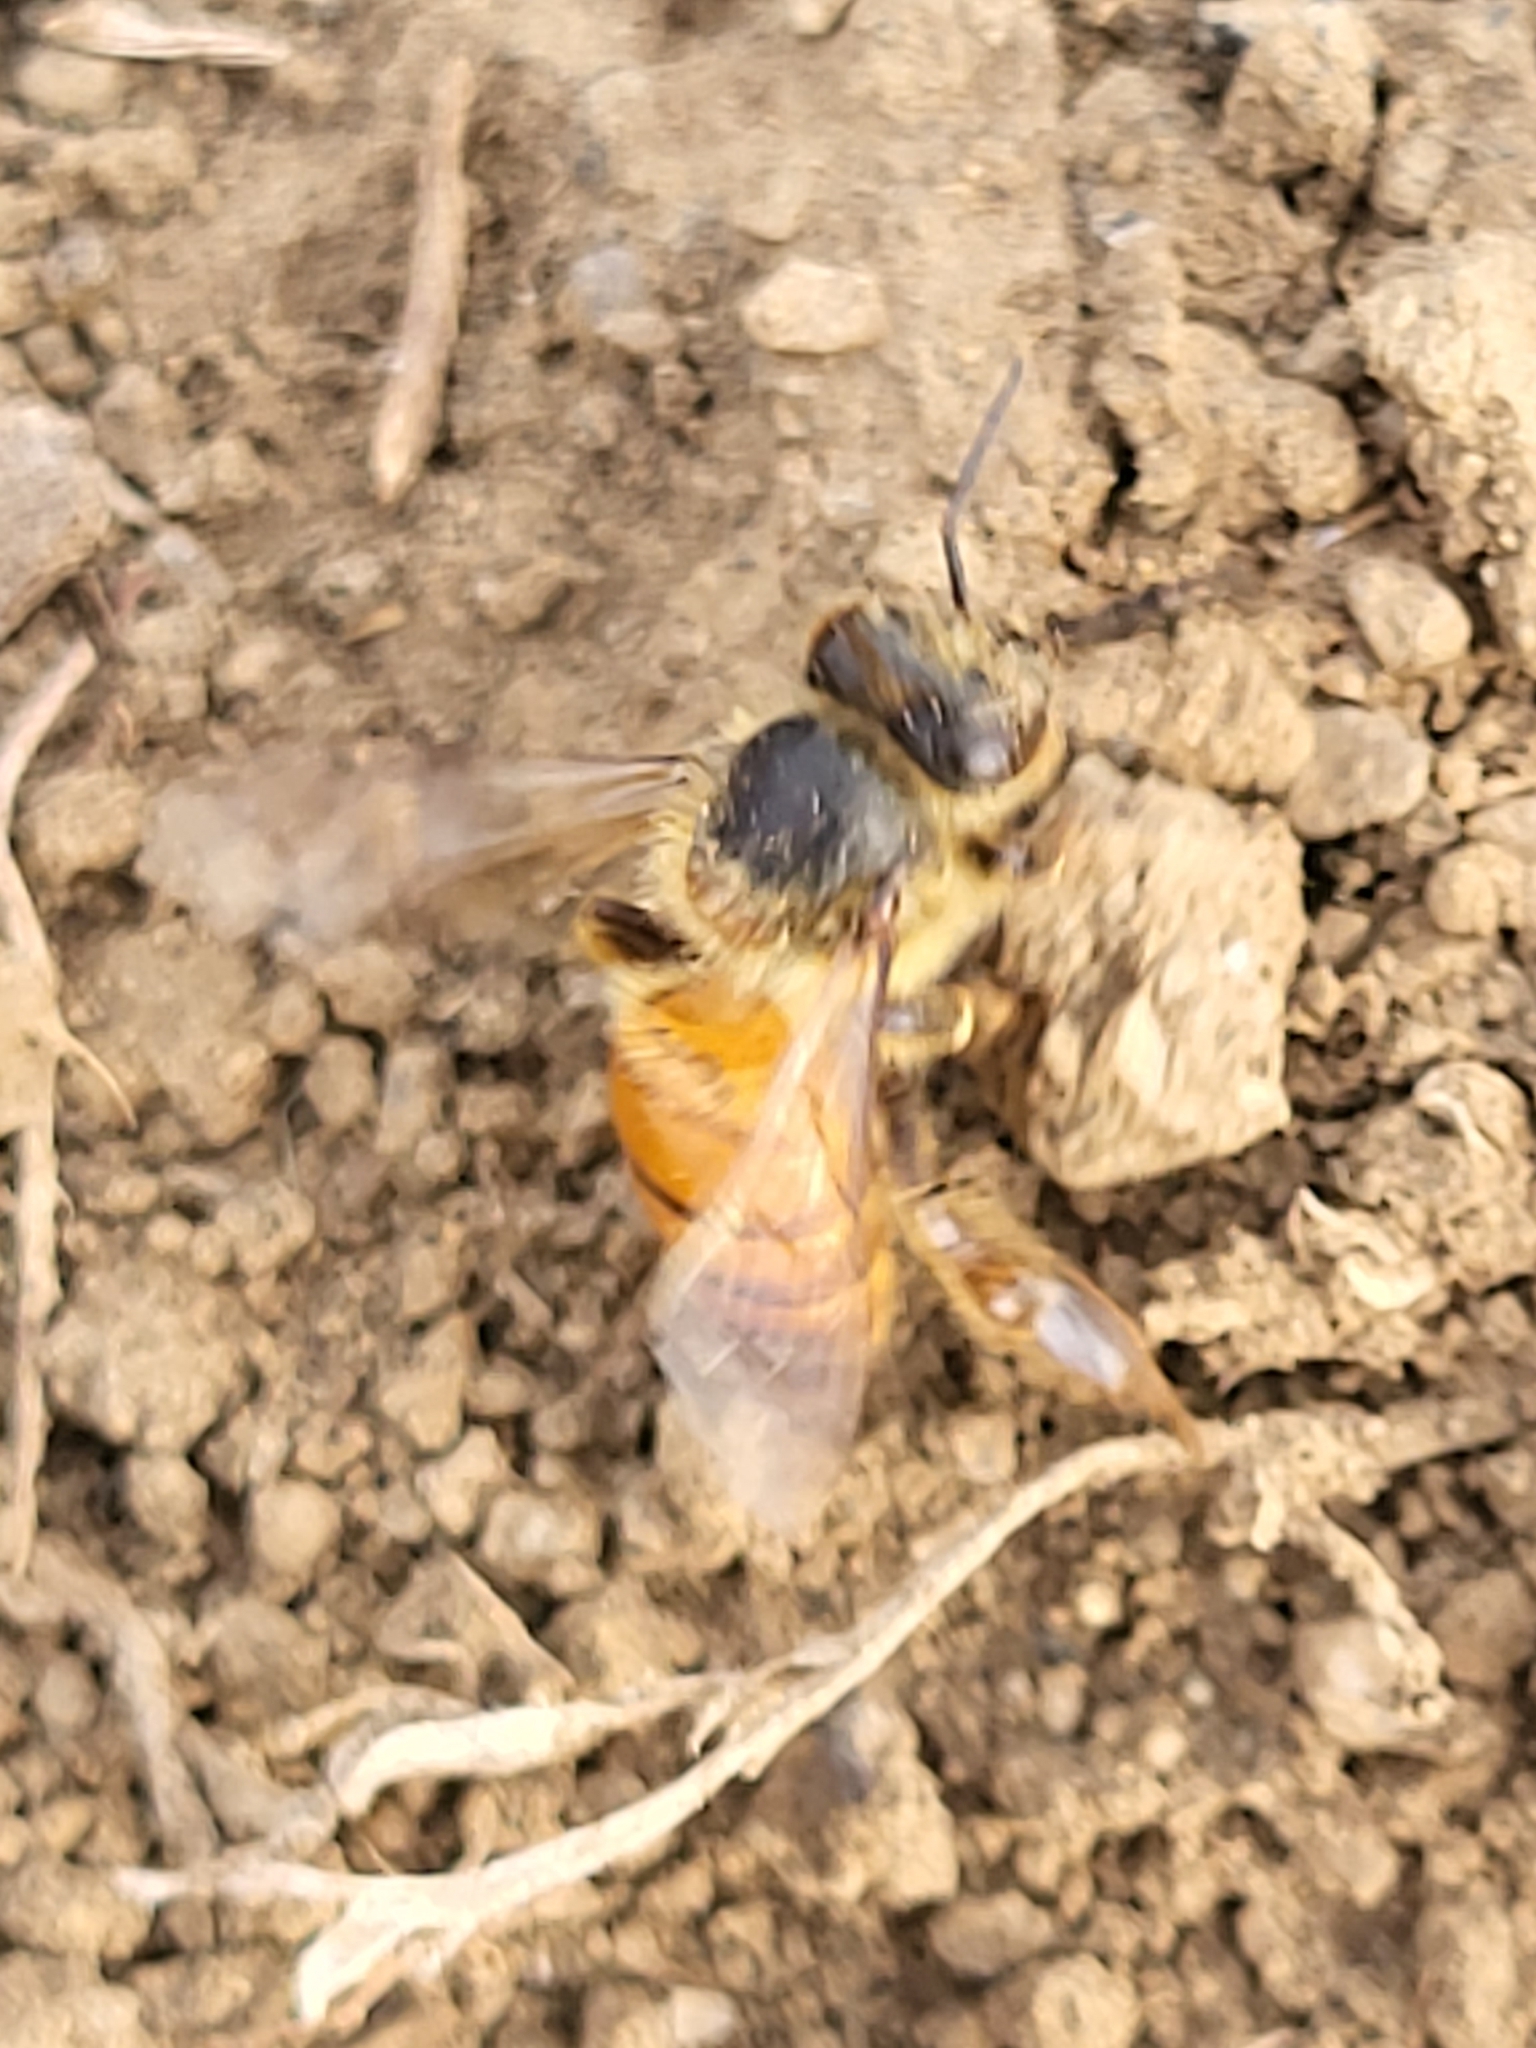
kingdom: Animalia
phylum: Arthropoda
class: Insecta
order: Hymenoptera
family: Apidae
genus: Apis
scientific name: Apis mellifera
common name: Honey bee
